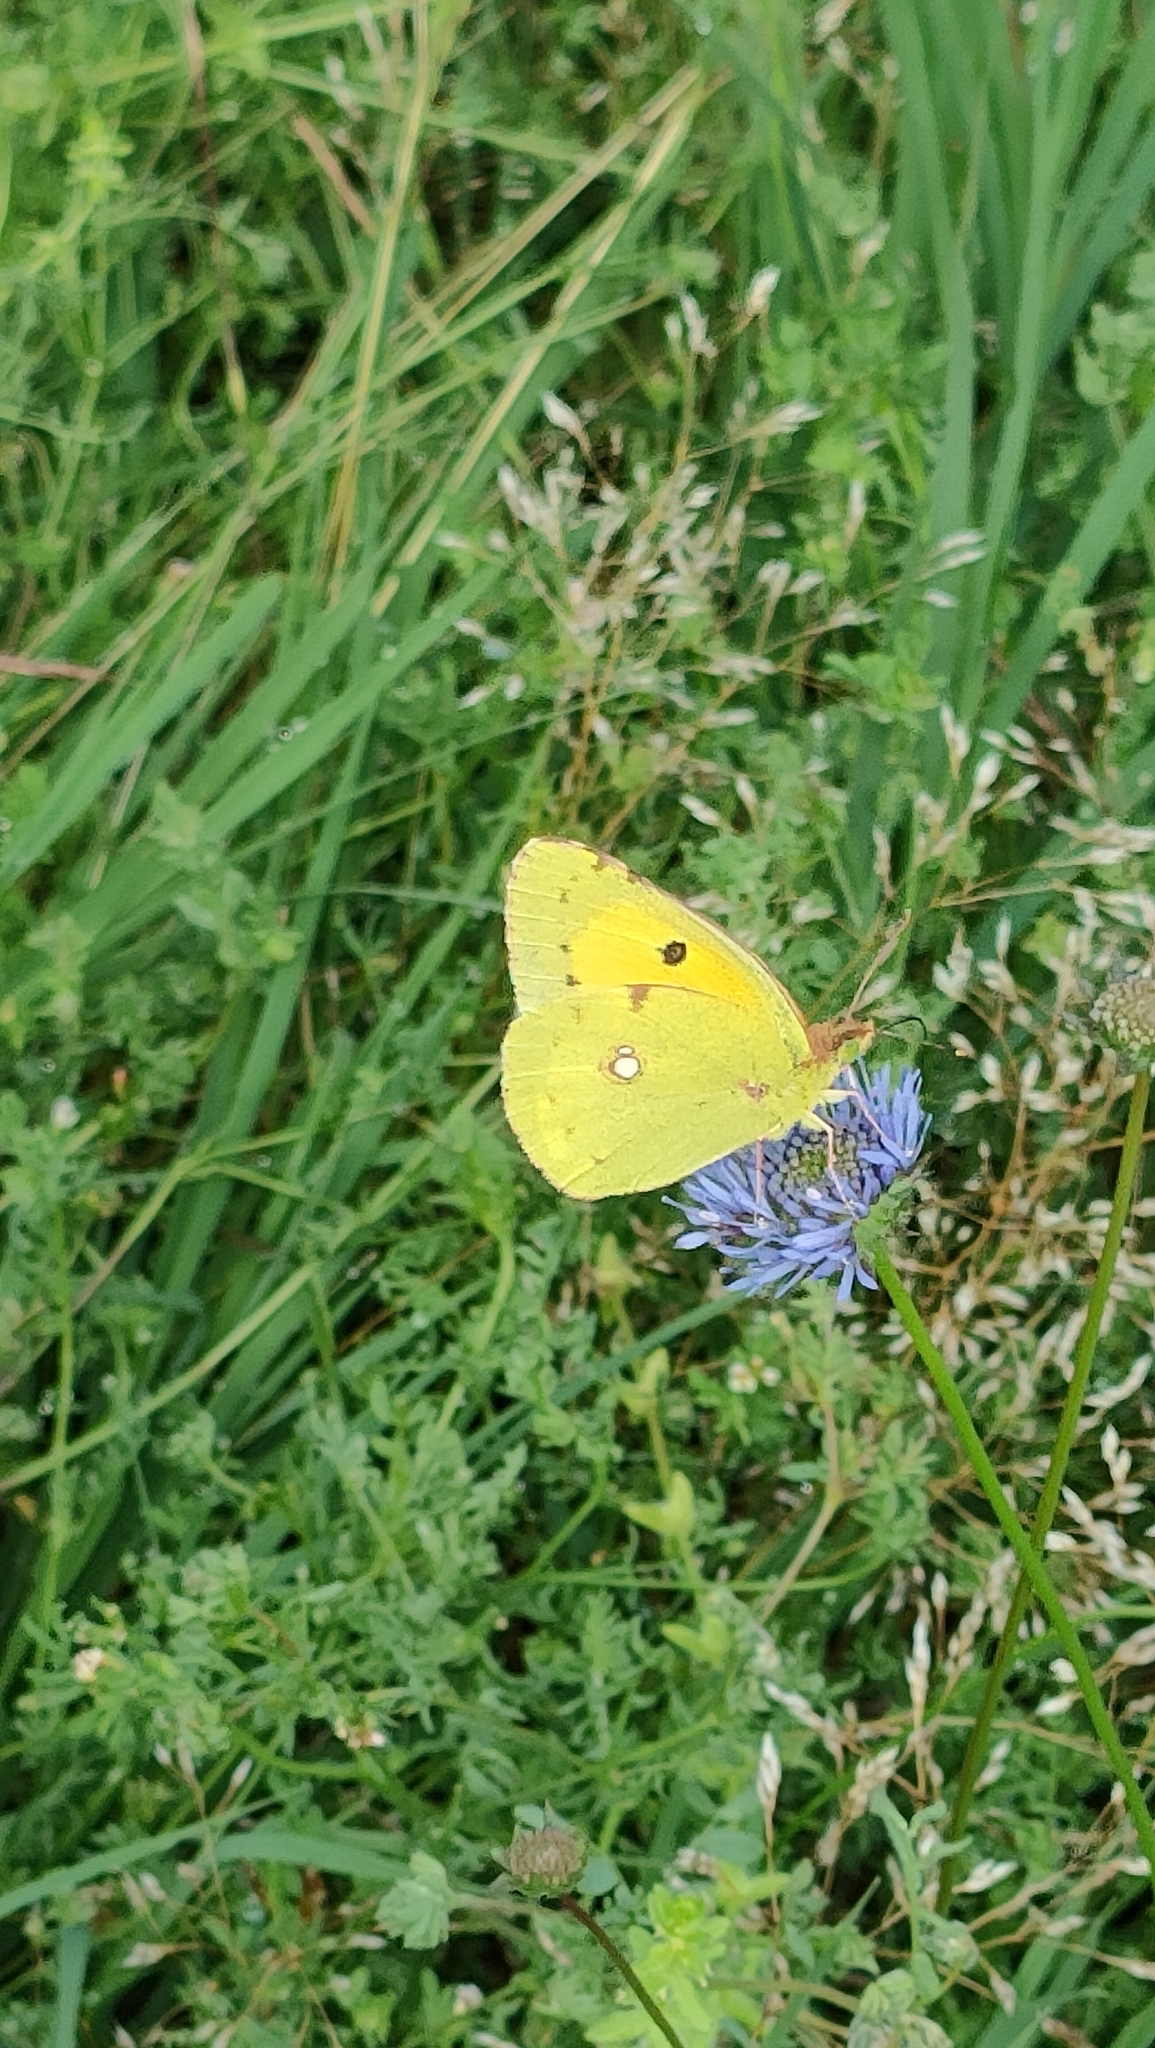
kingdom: Animalia
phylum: Arthropoda
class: Insecta
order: Lepidoptera
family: Pieridae
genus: Colias
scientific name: Colias croceus
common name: Clouded yellow
